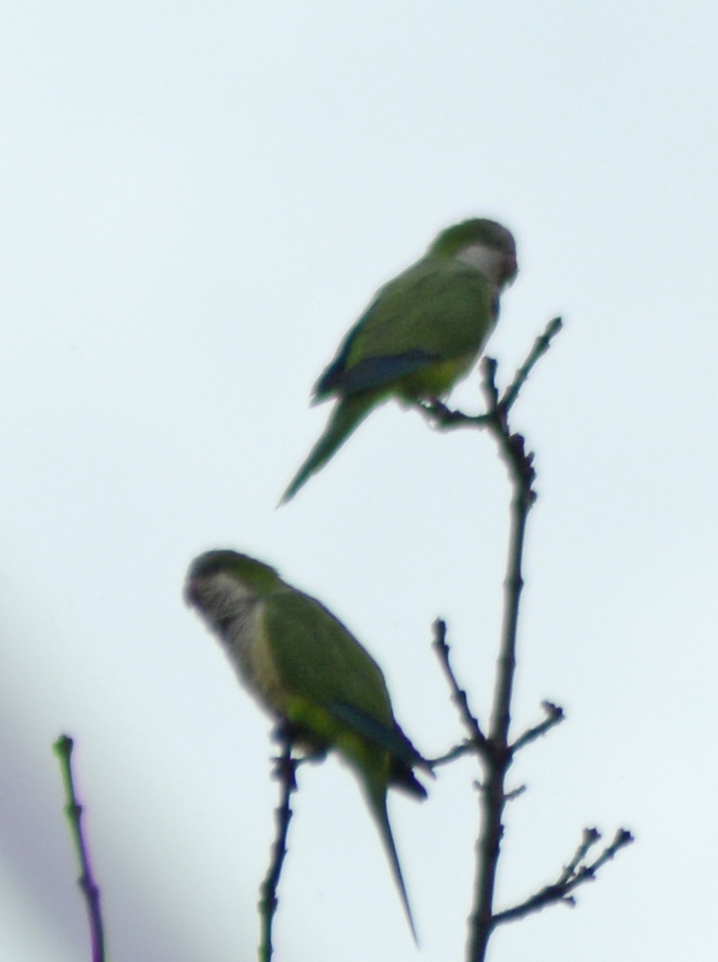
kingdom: Animalia
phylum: Chordata
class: Aves
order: Psittaciformes
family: Psittacidae
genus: Myiopsitta
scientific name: Myiopsitta monachus
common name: Monk parakeet
